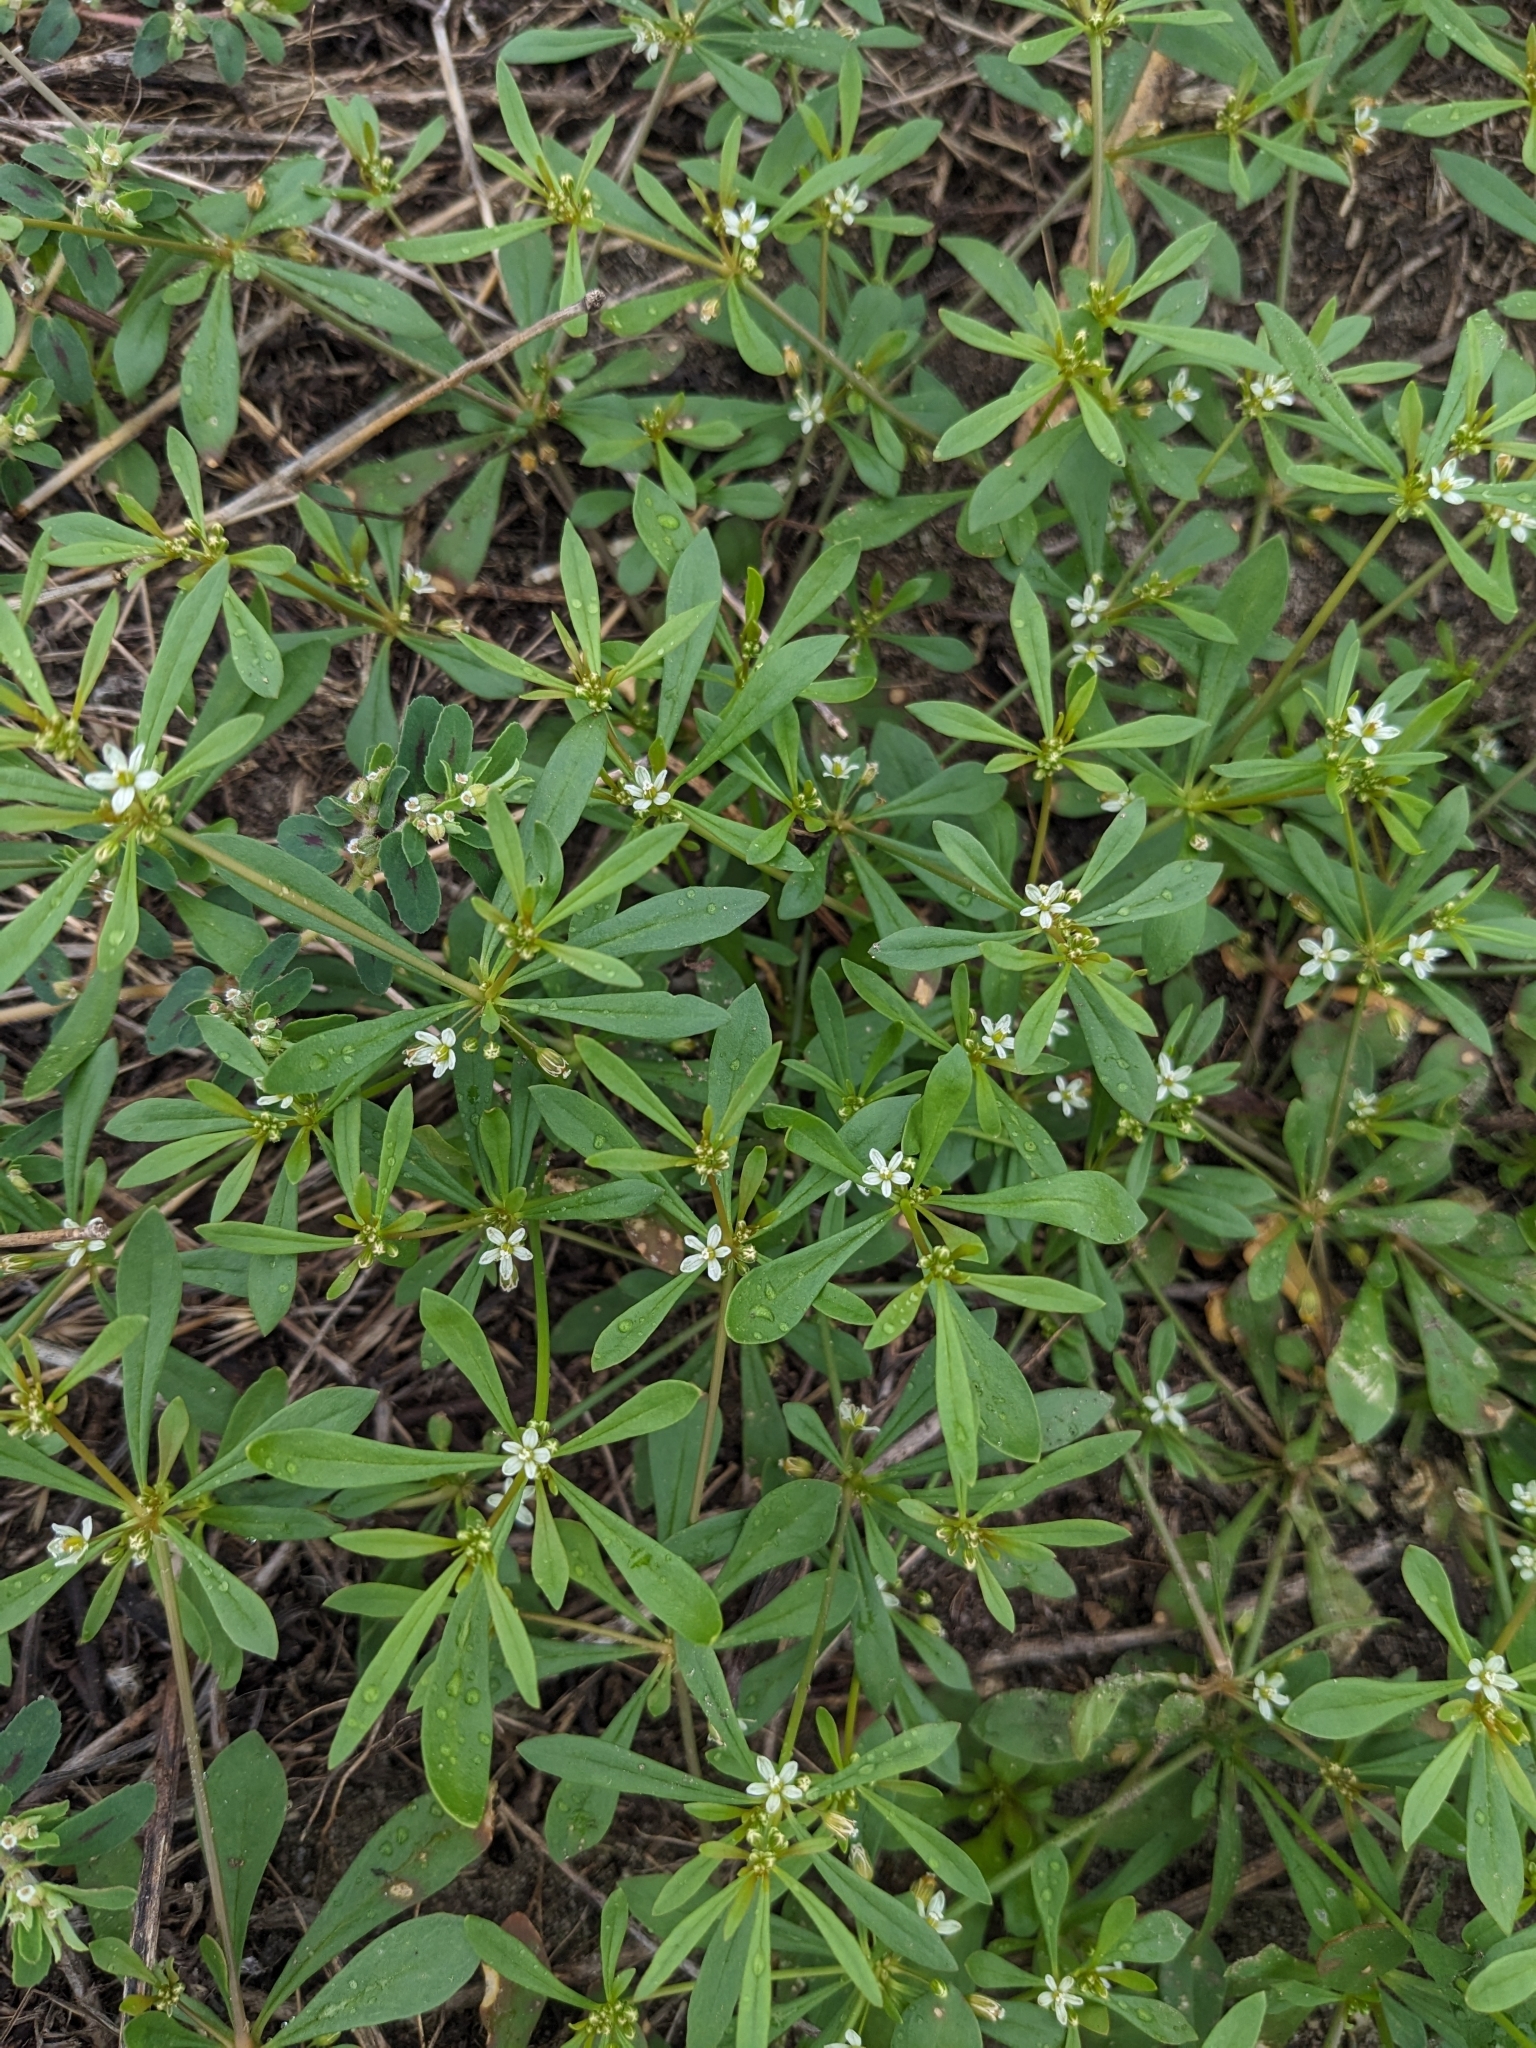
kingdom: Plantae
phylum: Tracheophyta
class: Magnoliopsida
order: Caryophyllales
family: Molluginaceae
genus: Mollugo
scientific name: Mollugo verticillata
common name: Green carpetweed
